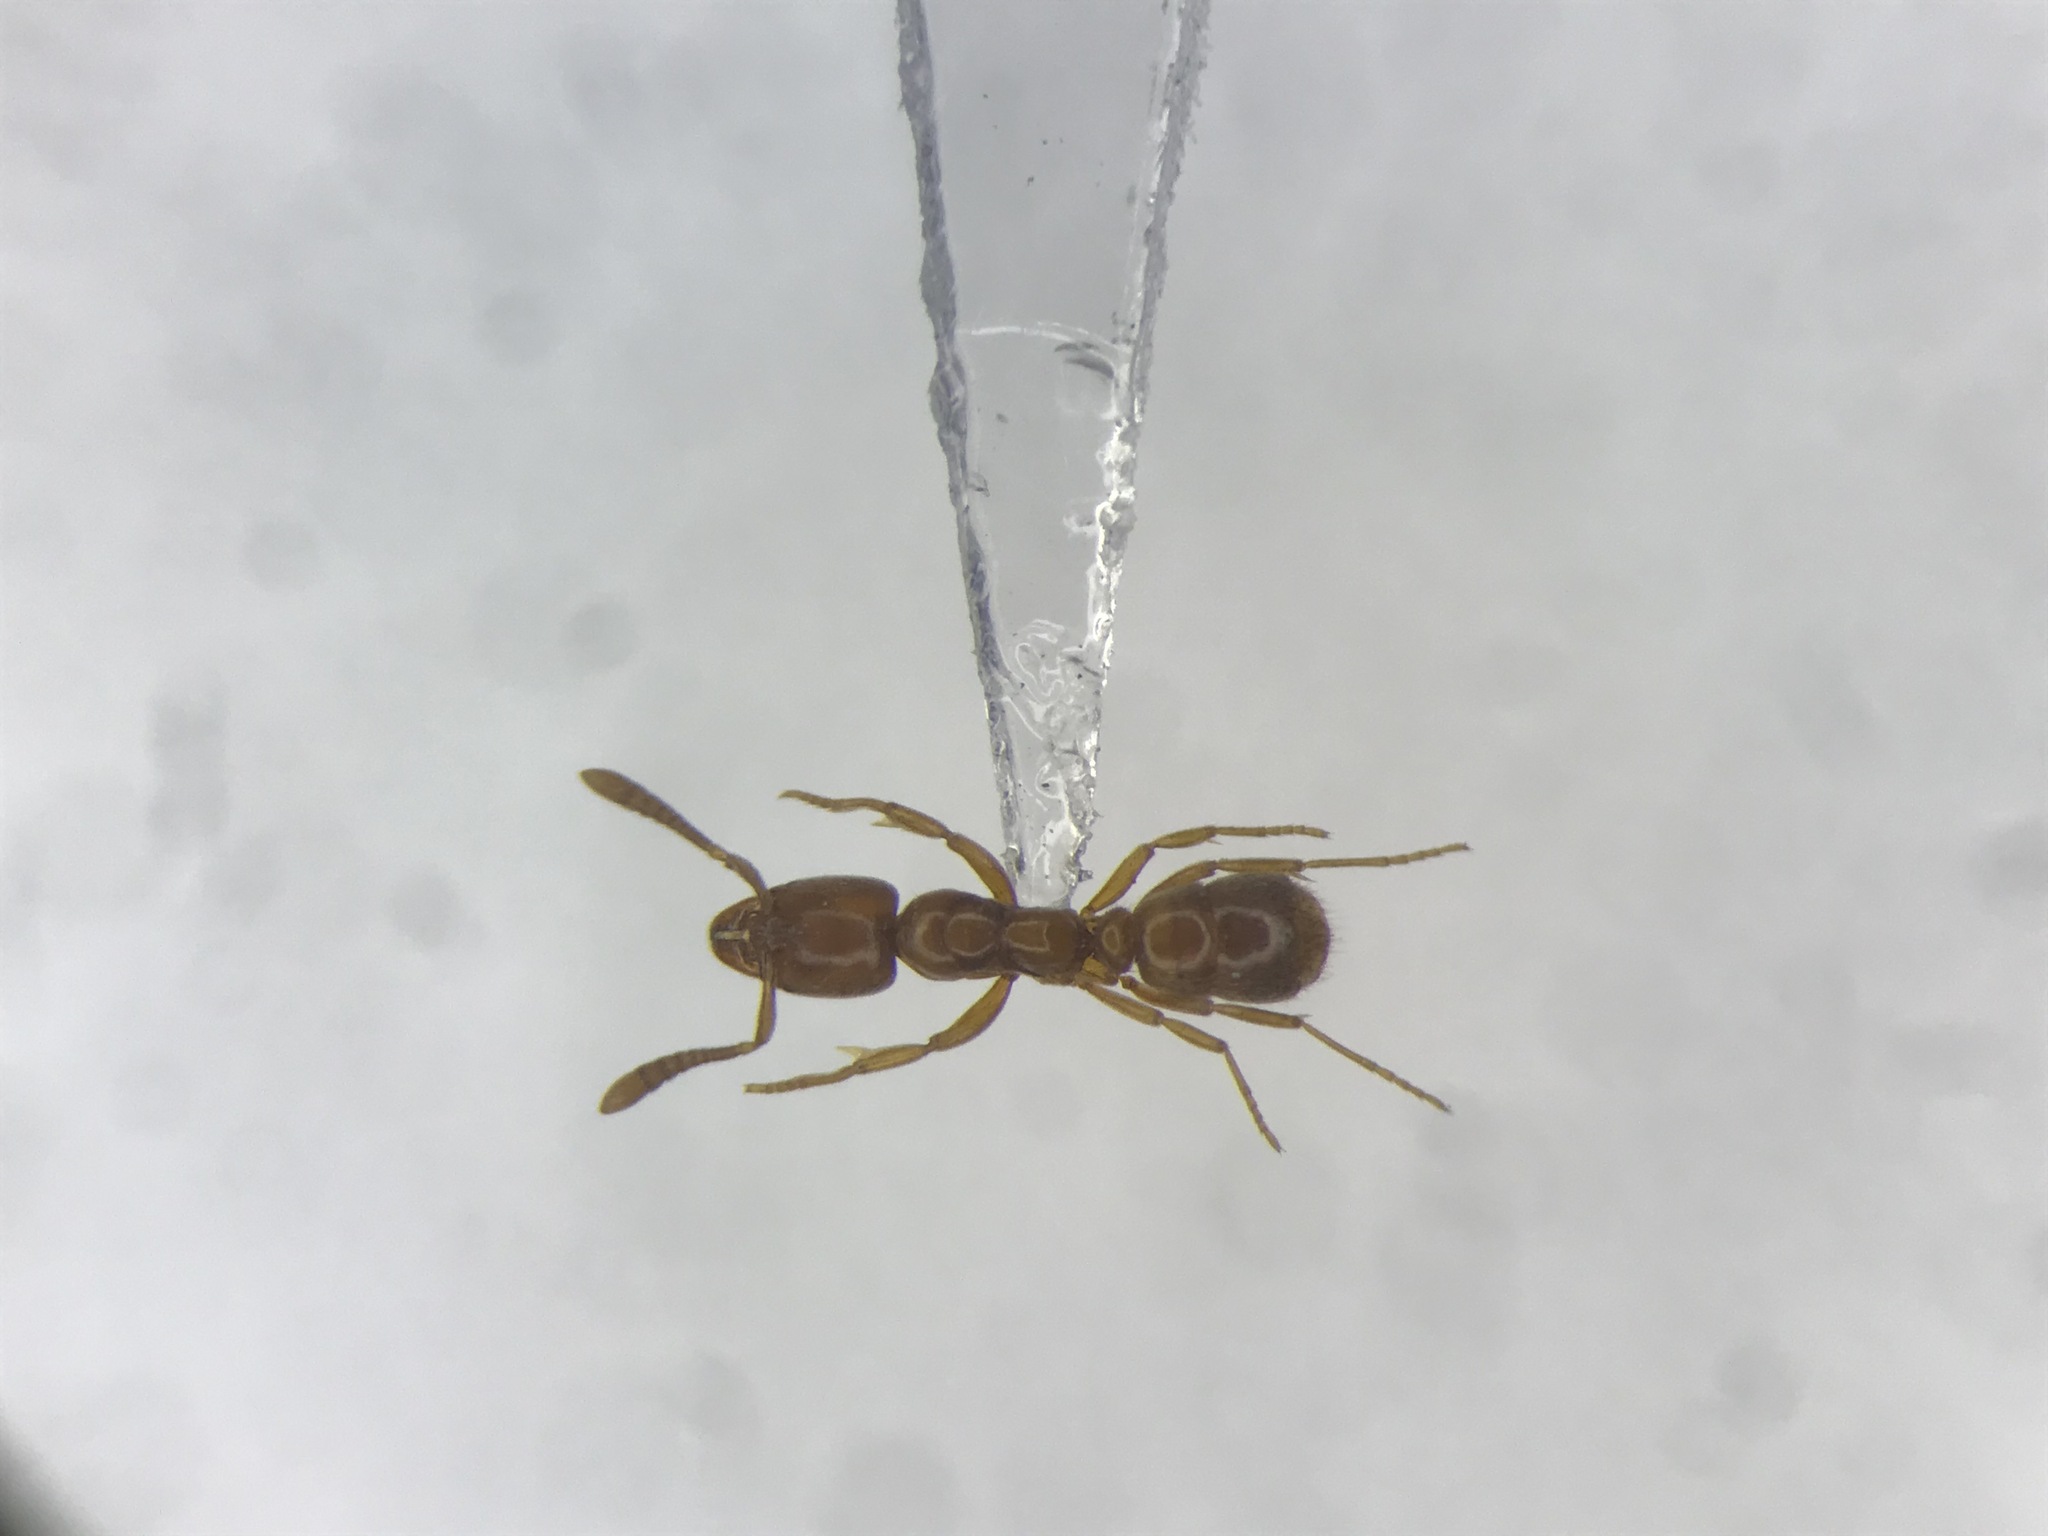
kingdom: Animalia
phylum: Arthropoda
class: Insecta
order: Hymenoptera
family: Formicidae
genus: Hypoponera
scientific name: Hypoponera punctatissima
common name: Pantropical mini-ponerine ant
